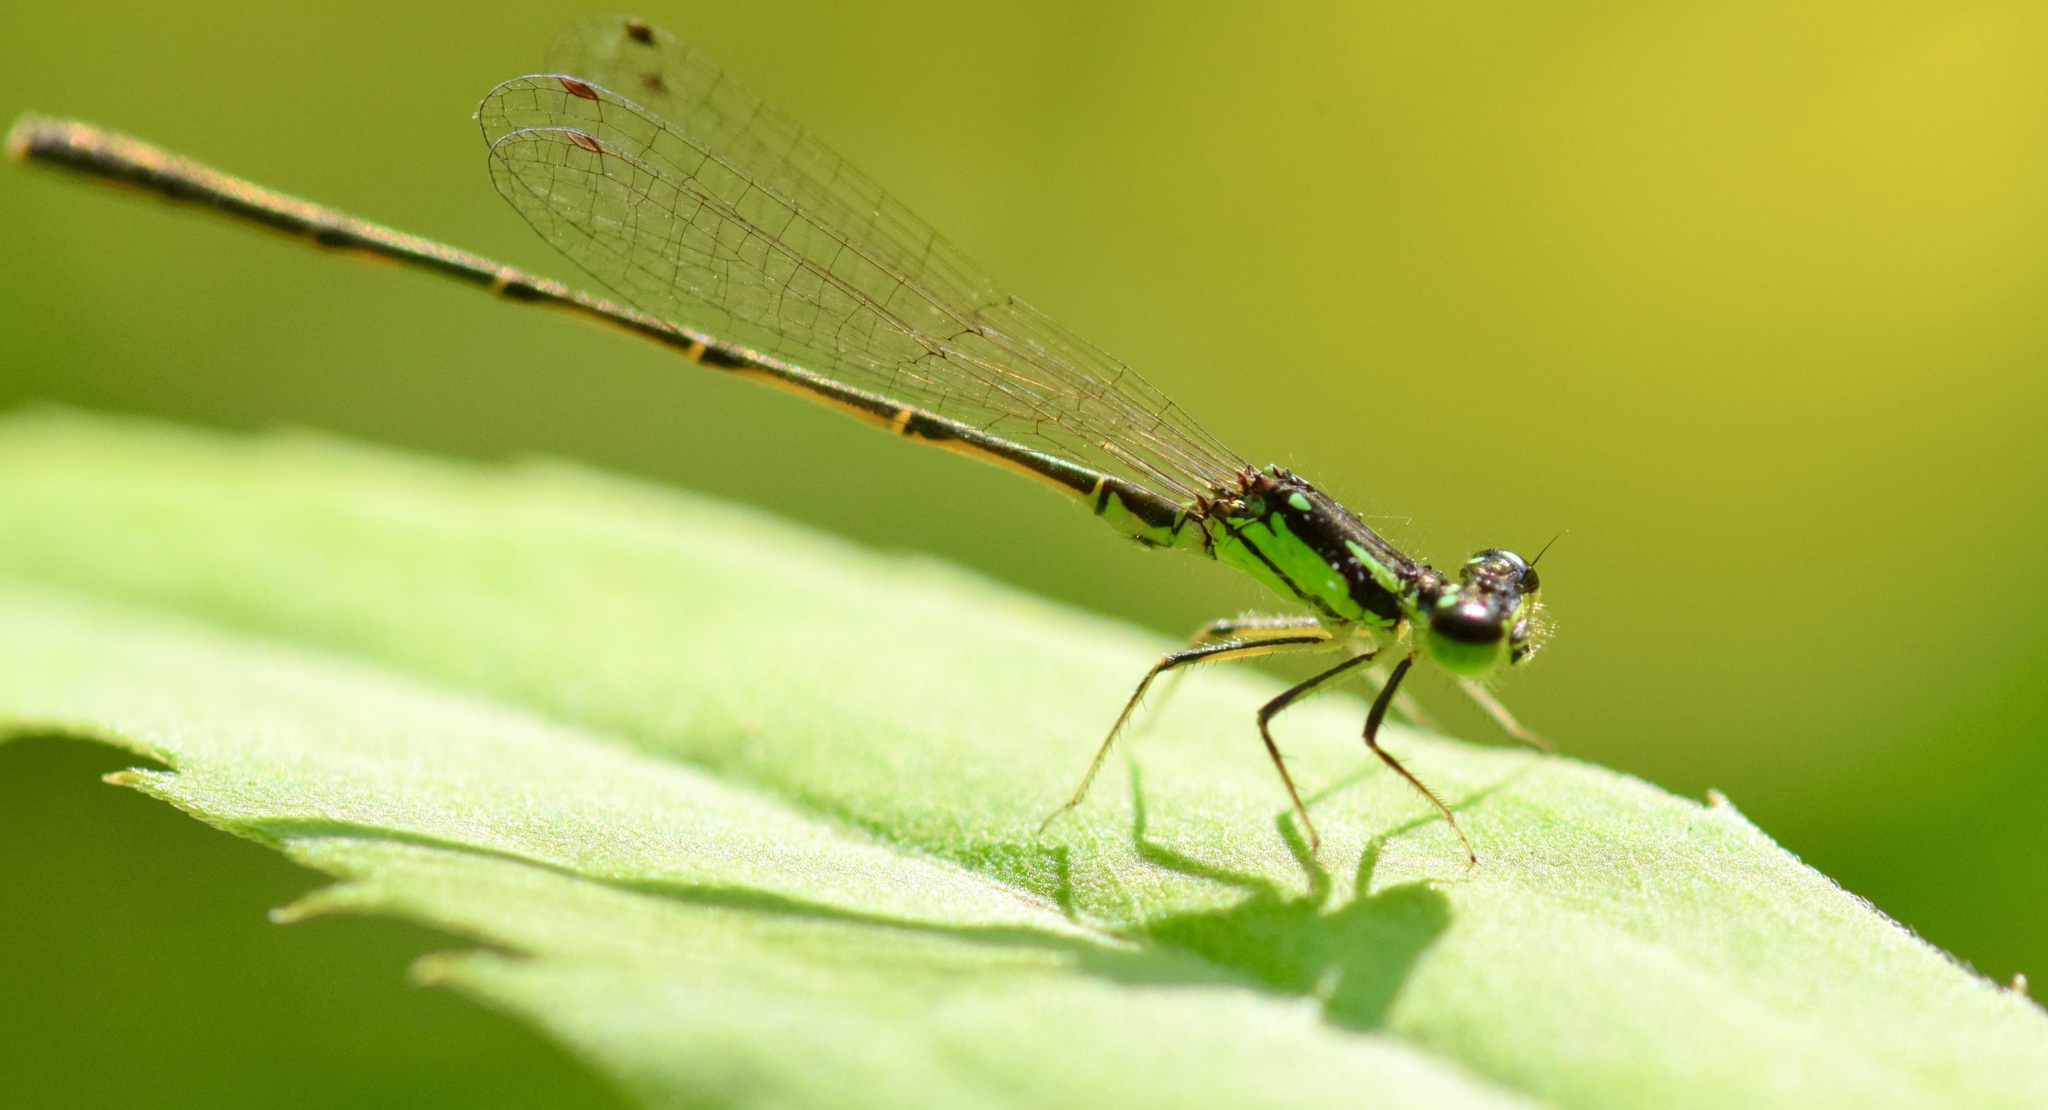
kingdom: Animalia
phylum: Arthropoda
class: Insecta
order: Odonata
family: Coenagrionidae
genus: Ischnura
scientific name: Ischnura posita
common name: Fragile forktail
